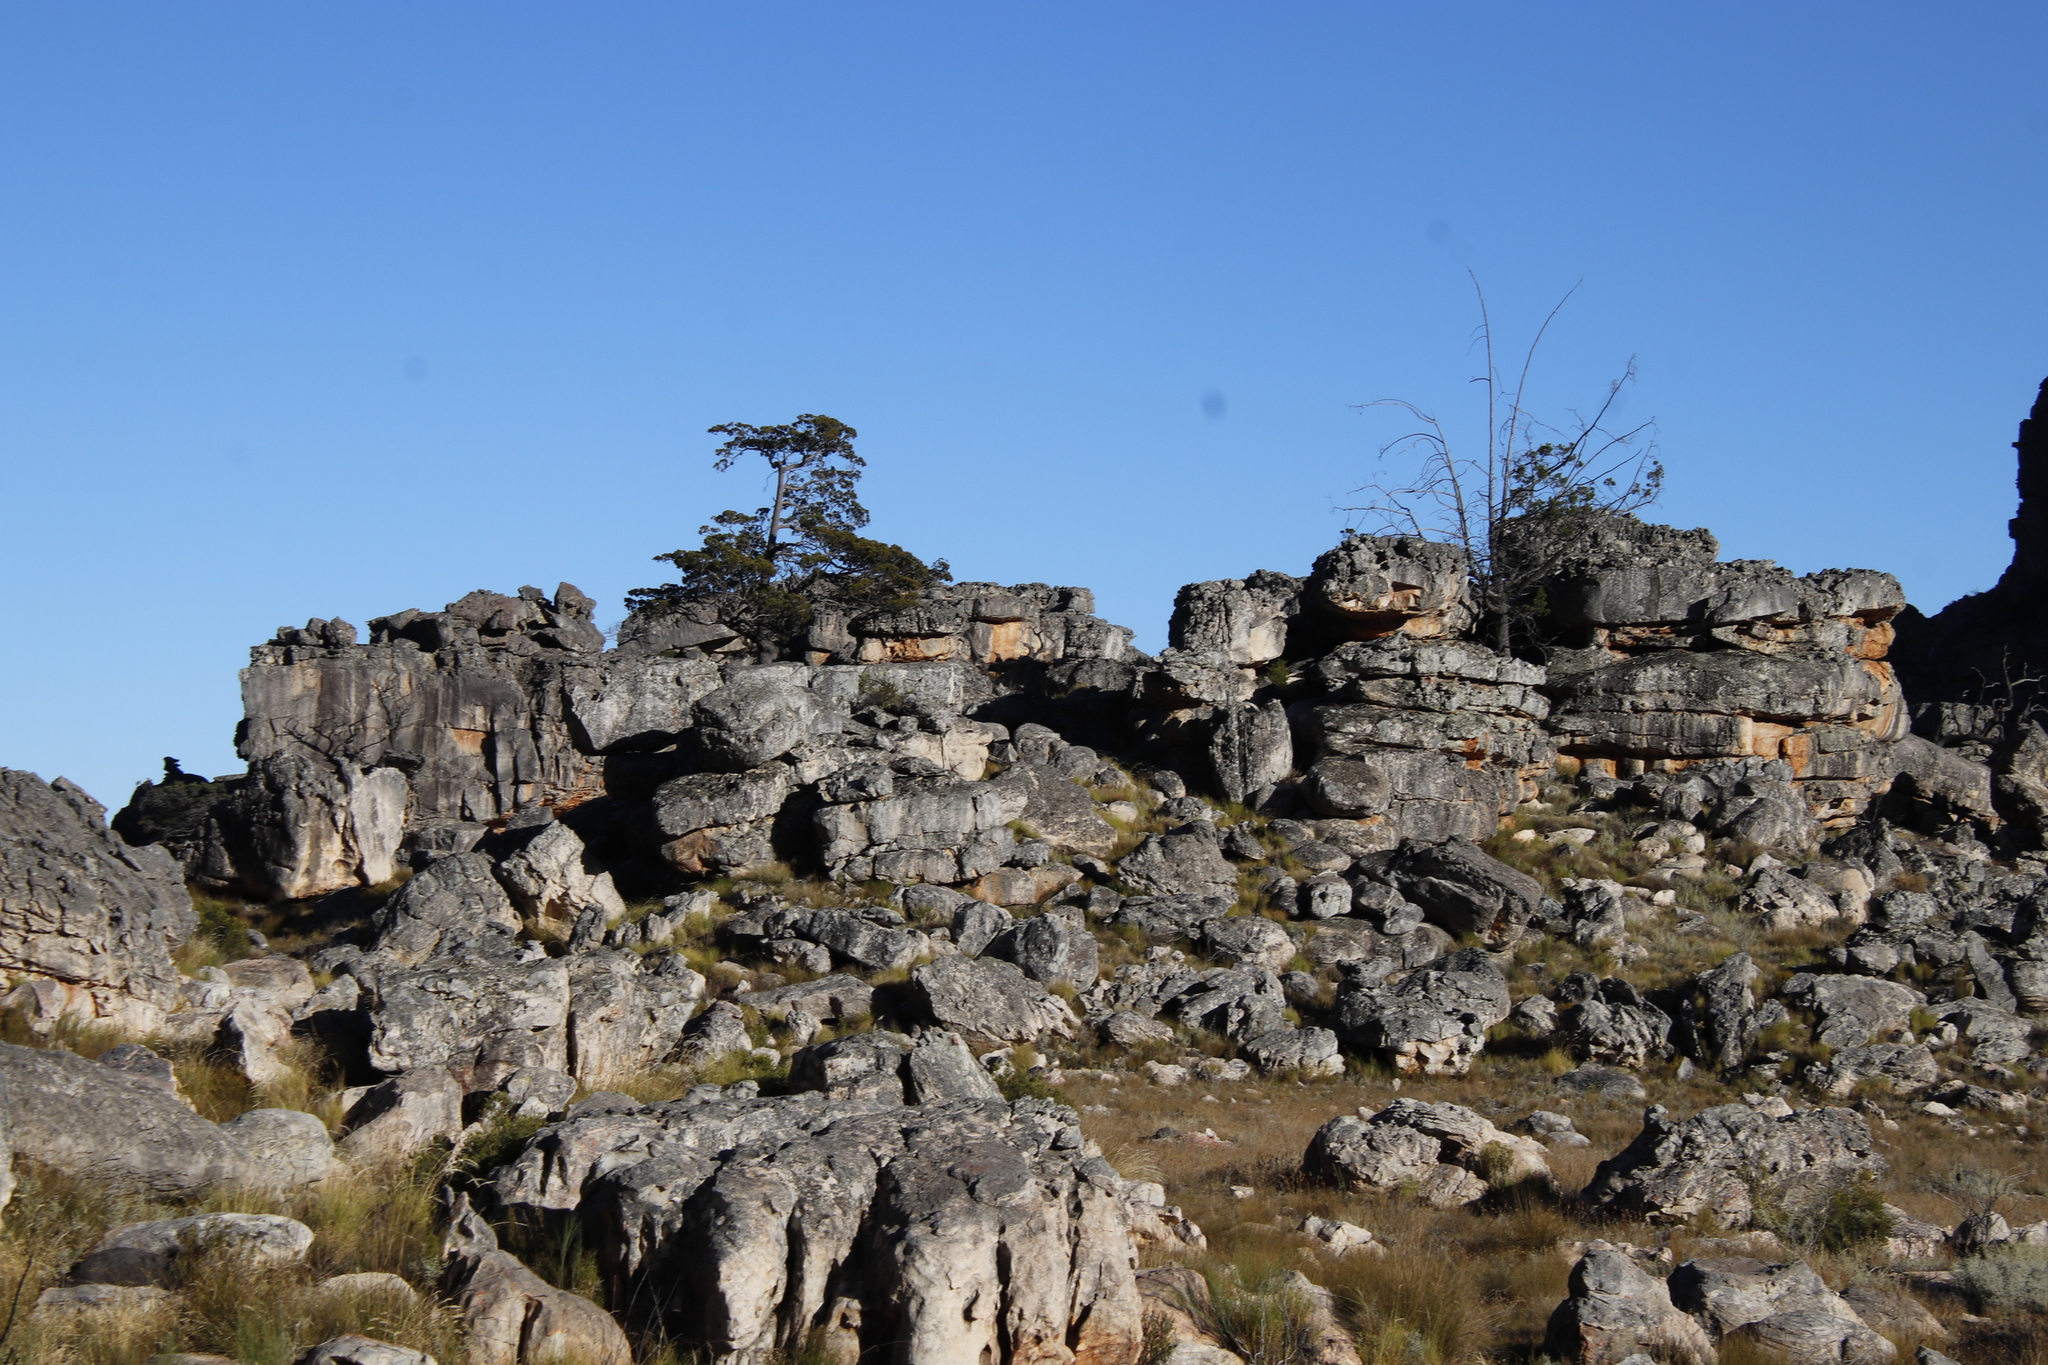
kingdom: Plantae
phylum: Tracheophyta
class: Pinopsida
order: Pinales
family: Cupressaceae
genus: Widdringtonia
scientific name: Widdringtonia nodiflora
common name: Cape cypress
